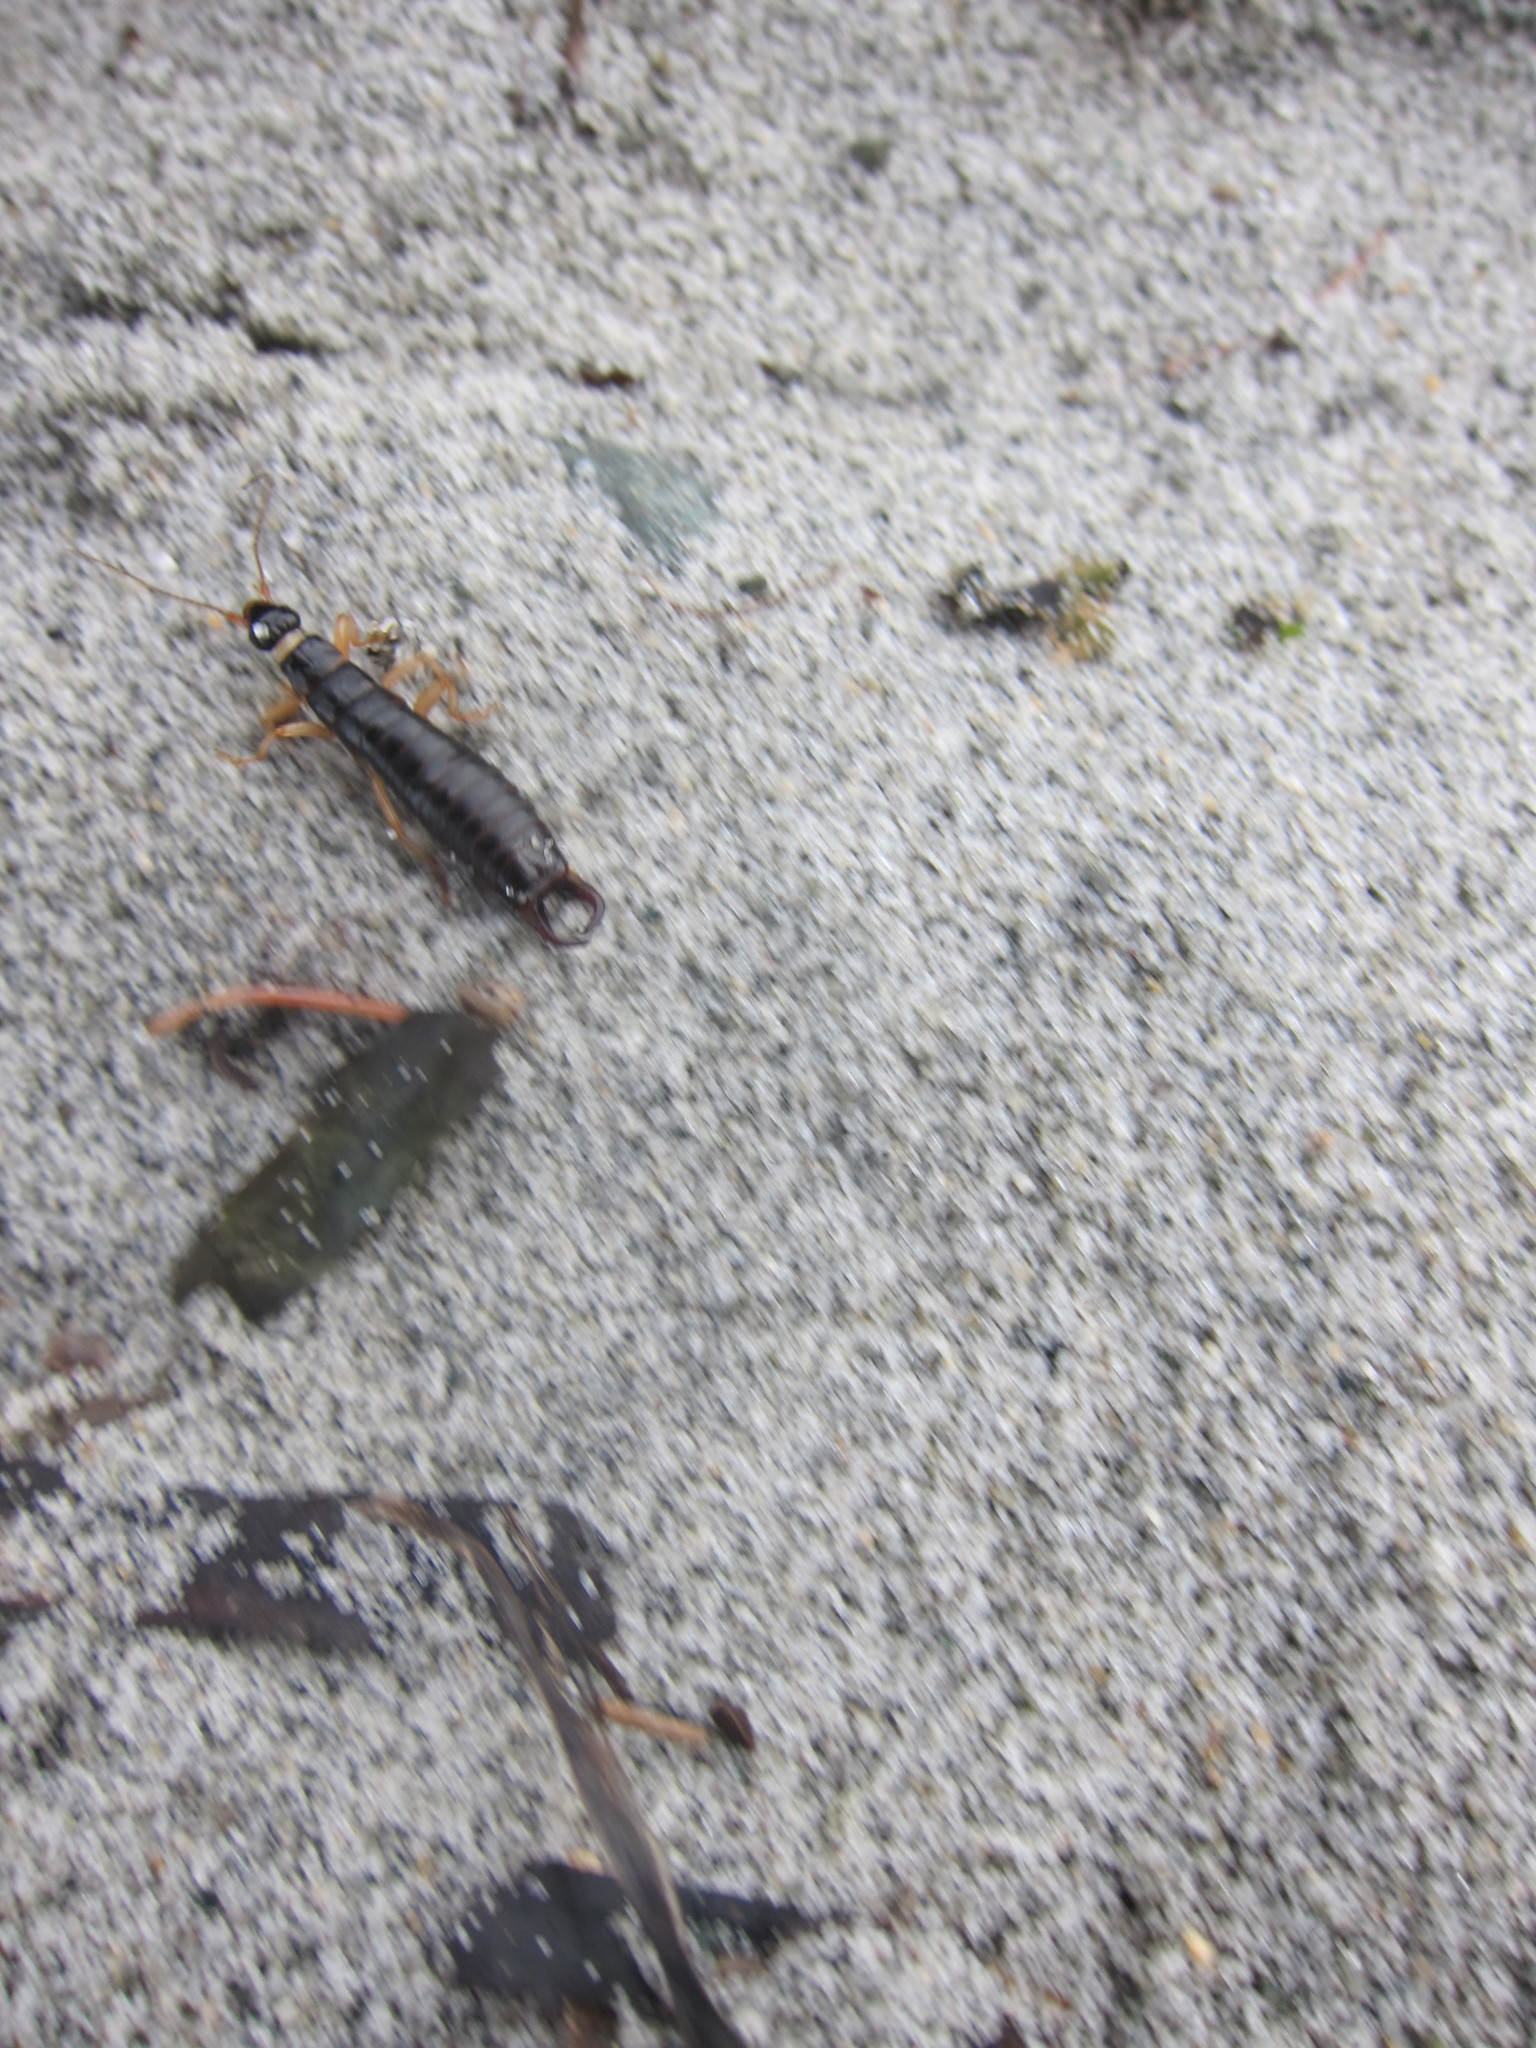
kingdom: Animalia
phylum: Arthropoda
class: Insecta
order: Dermaptera
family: Anisolabididae
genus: Anisolabis
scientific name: Anisolabis maritima
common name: Maritime earwig
